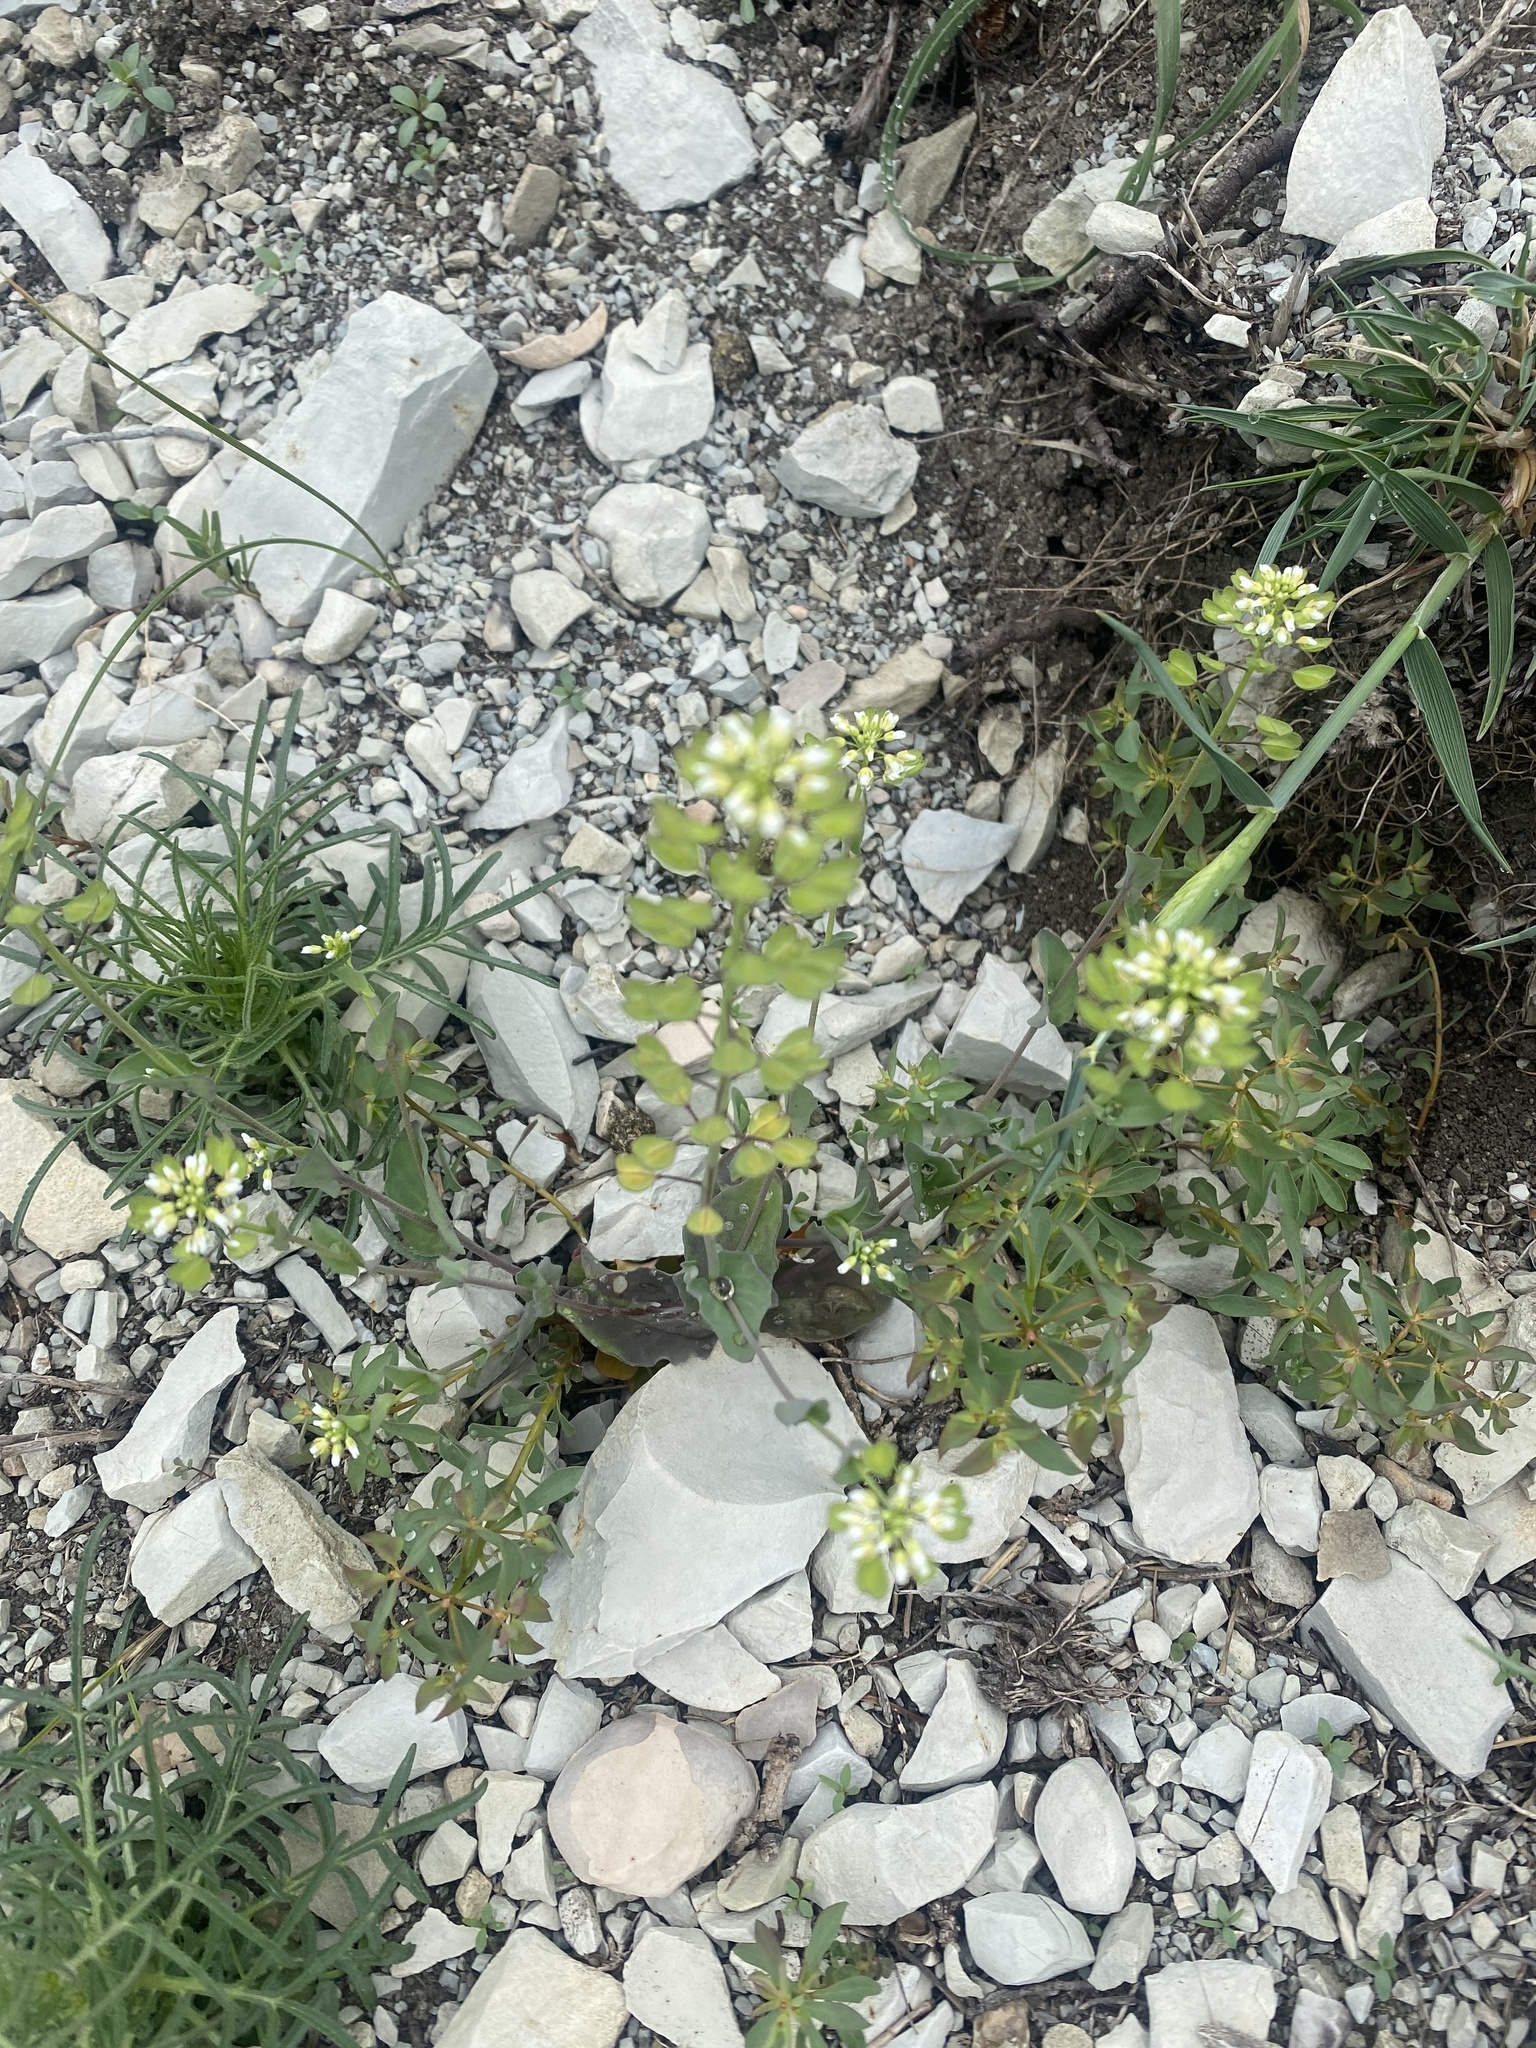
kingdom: Plantae
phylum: Tracheophyta
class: Magnoliopsida
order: Brassicales
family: Brassicaceae
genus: Noccaea
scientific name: Noccaea perfoliata
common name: Perfoliate pennycress
